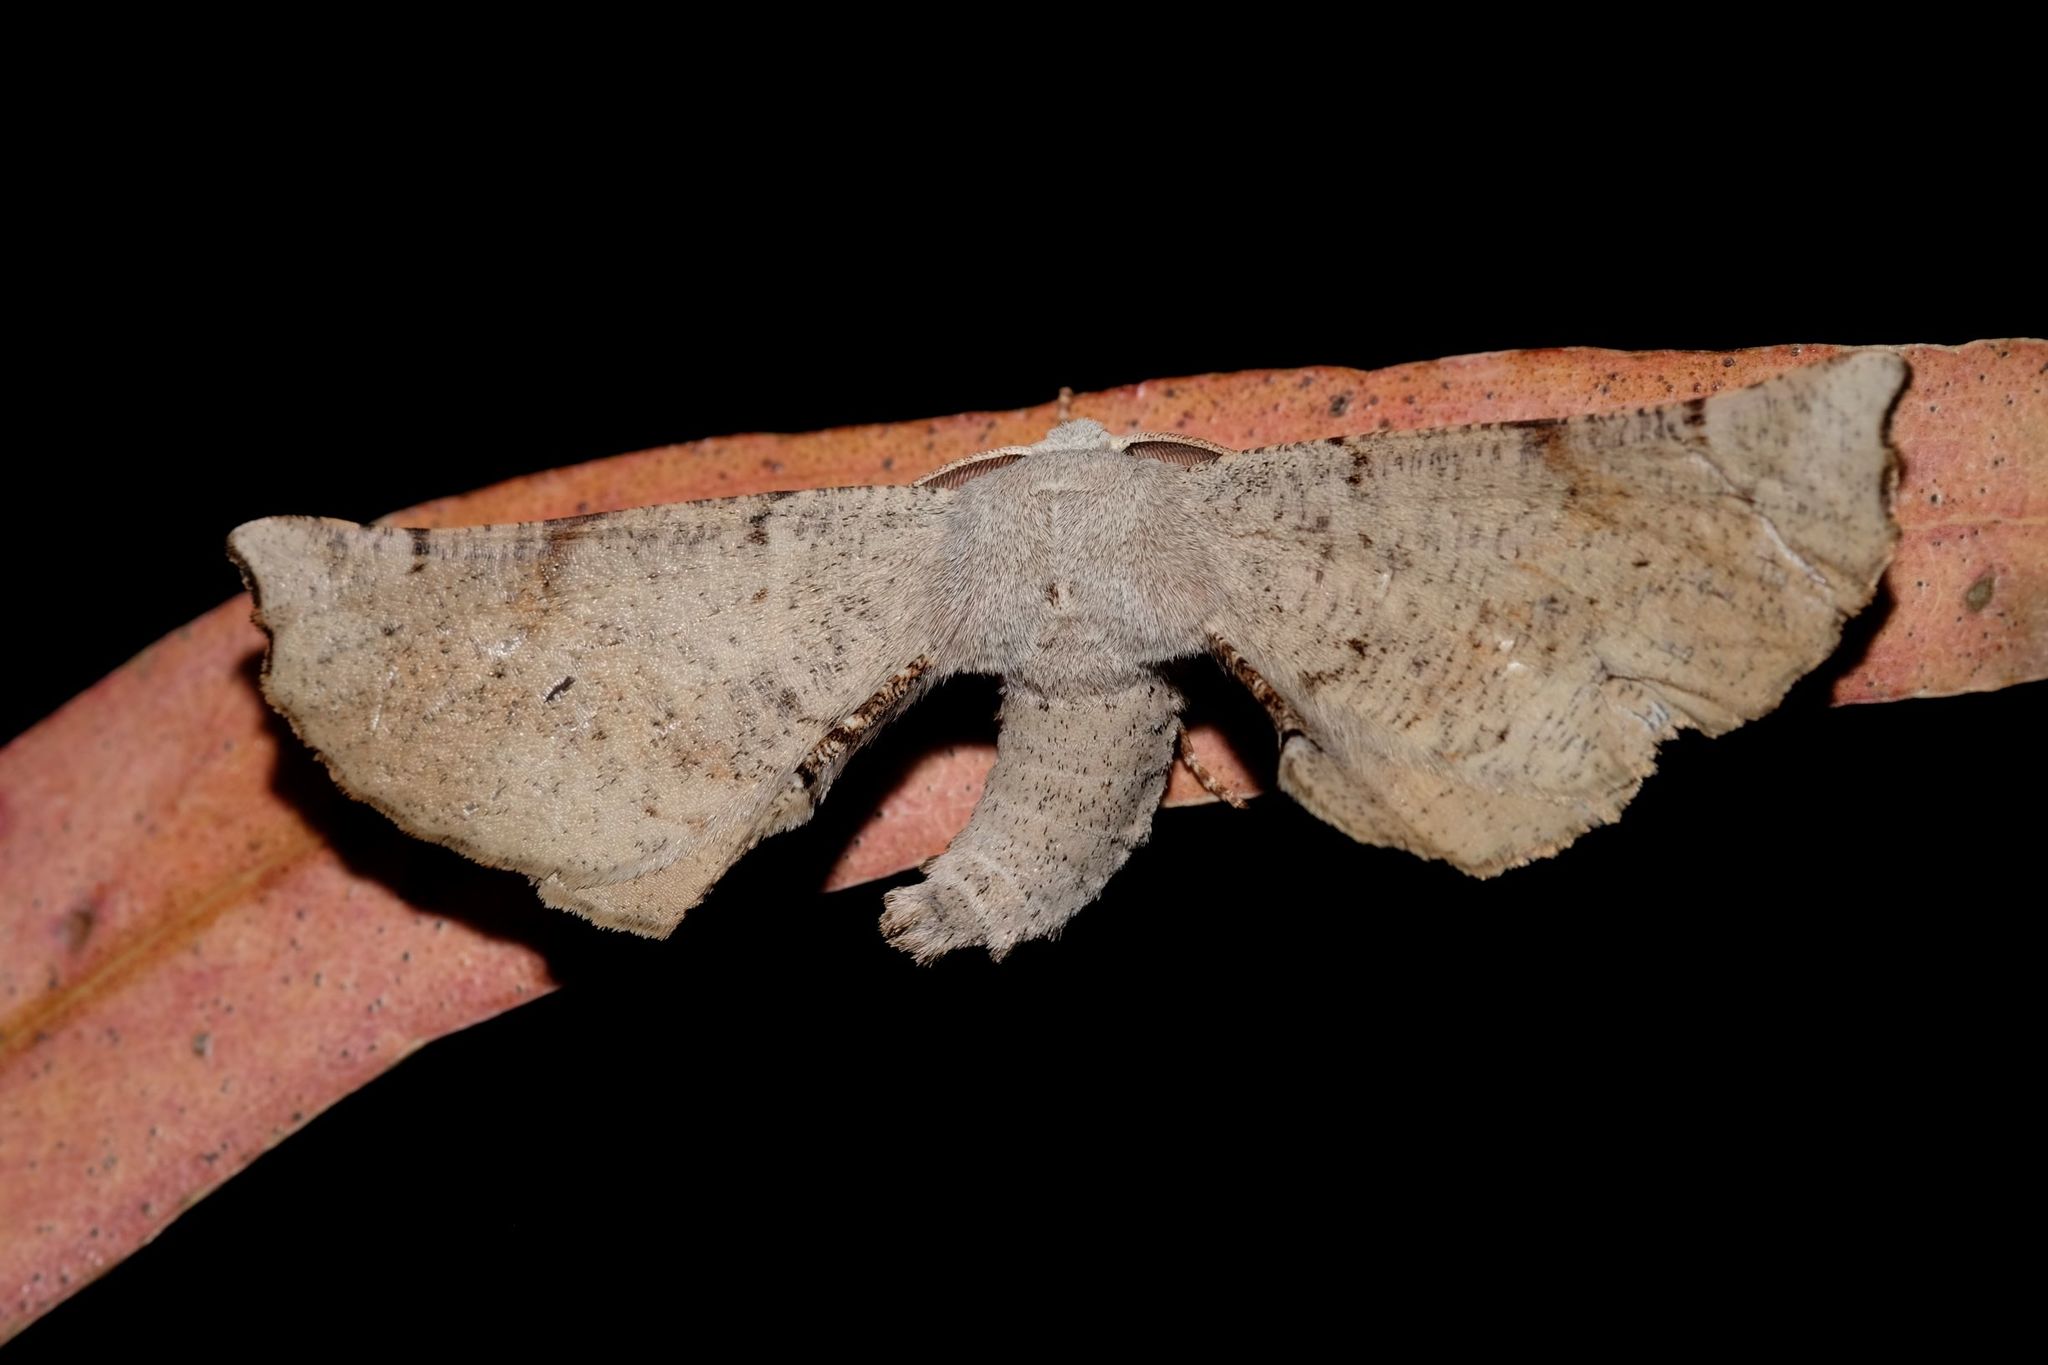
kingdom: Animalia
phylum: Arthropoda
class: Insecta
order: Lepidoptera
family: Geometridae
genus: Circopetes
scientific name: Circopetes obtusata
